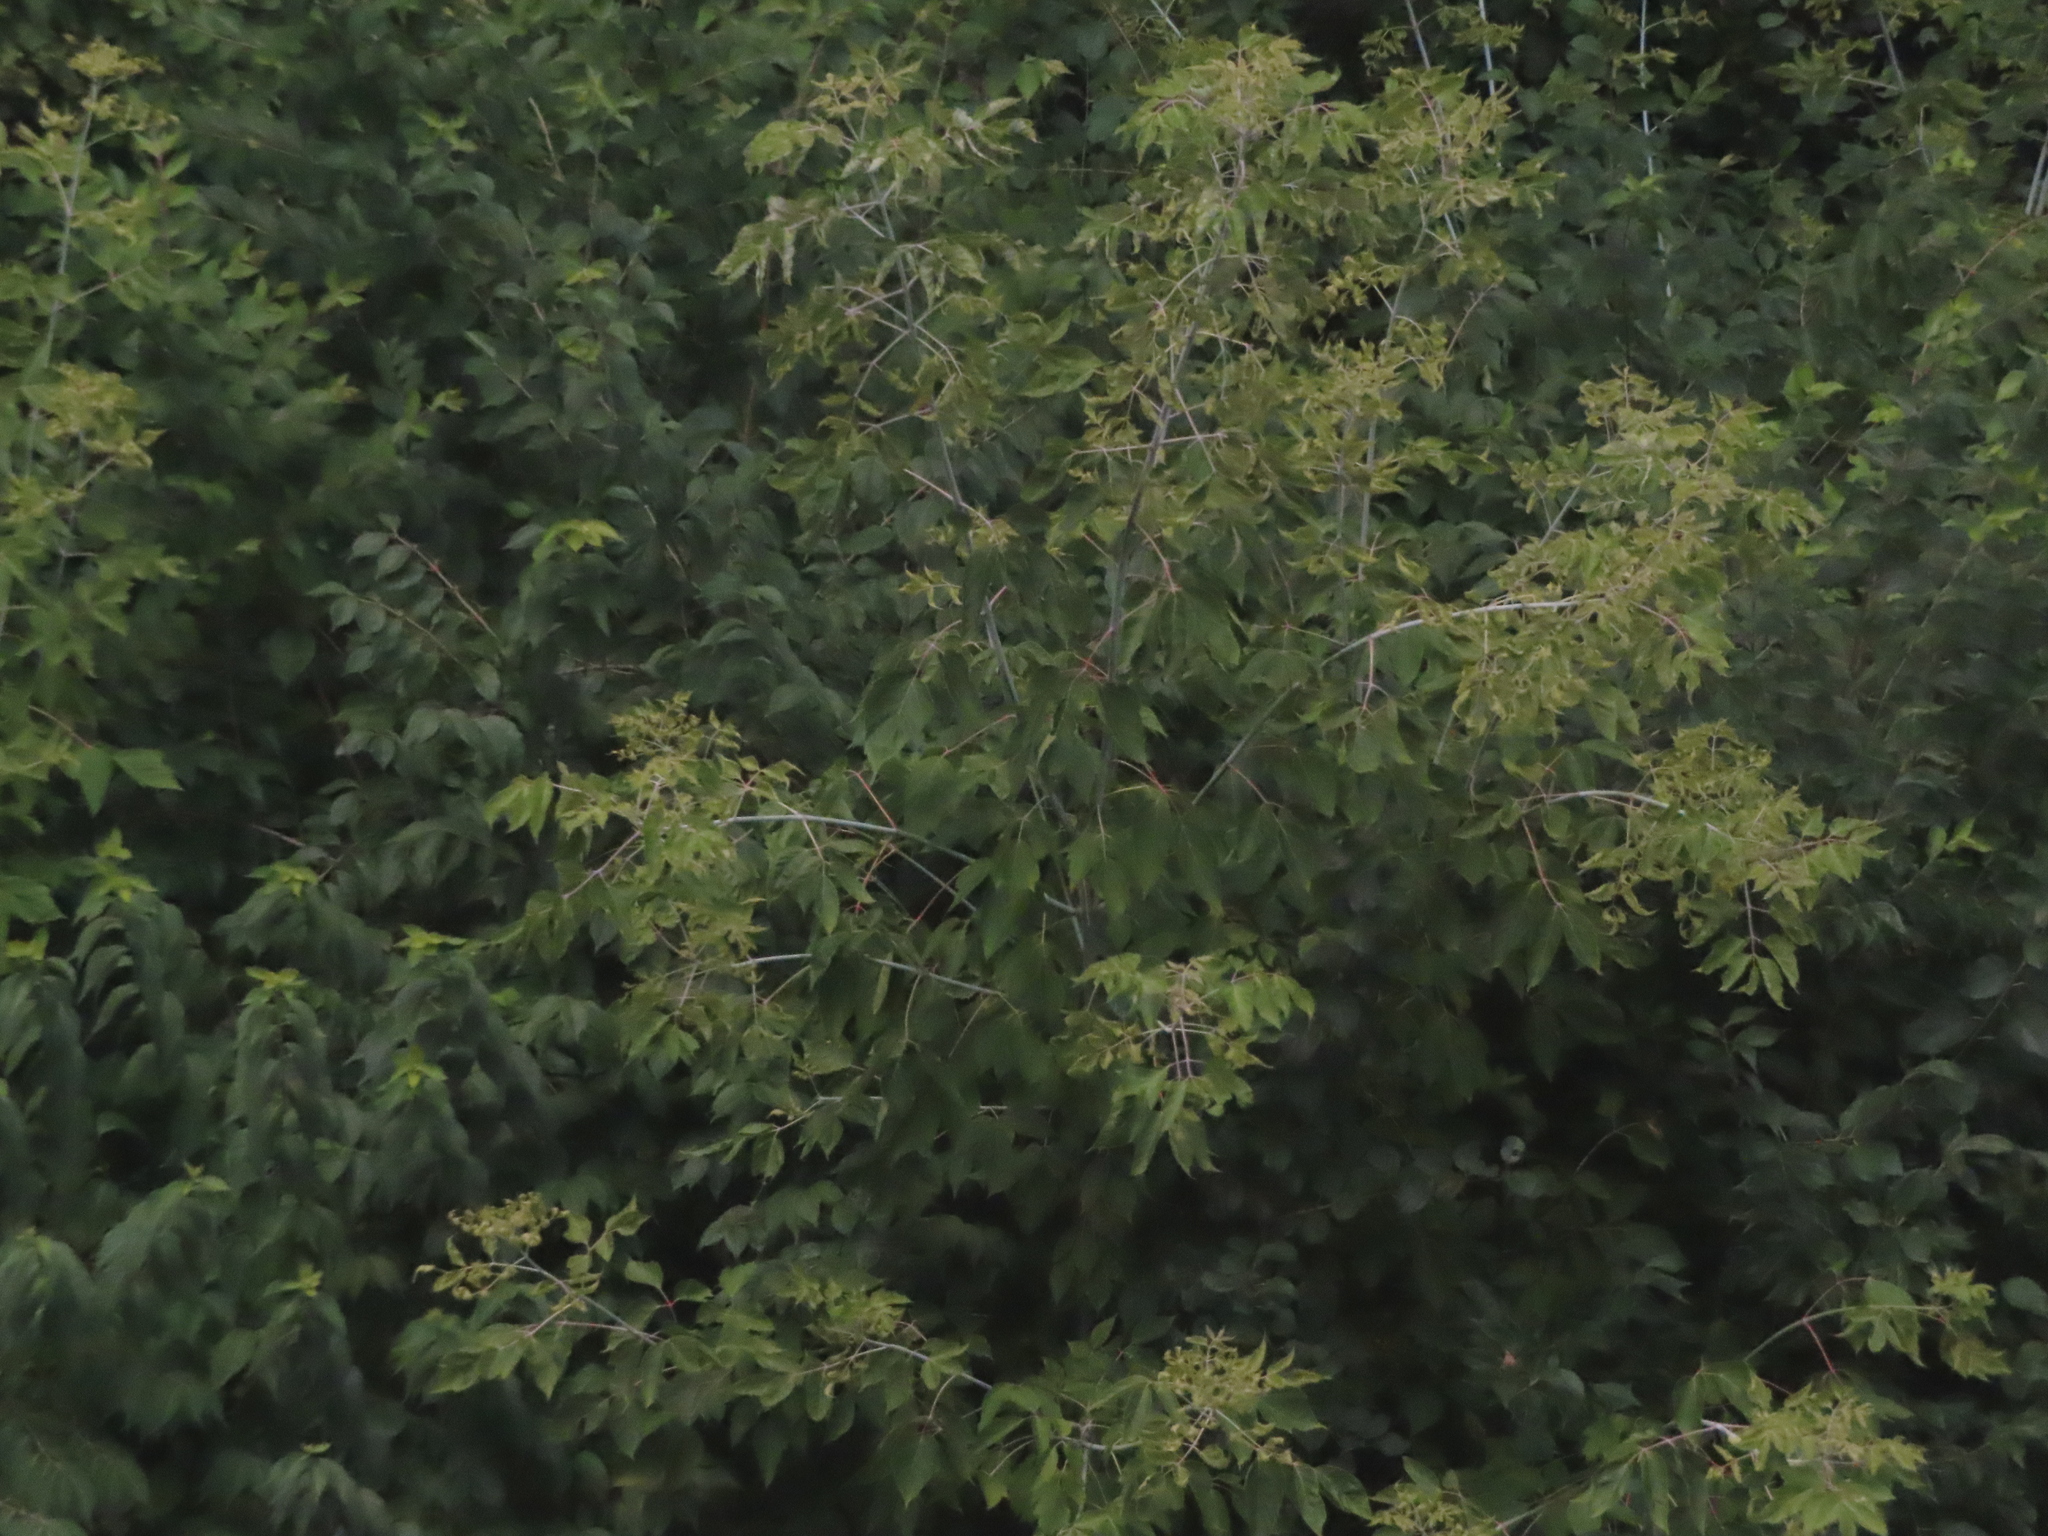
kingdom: Plantae
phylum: Tracheophyta
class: Magnoliopsida
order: Sapindales
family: Sapindaceae
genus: Acer
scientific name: Acer negundo
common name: Ashleaf maple
